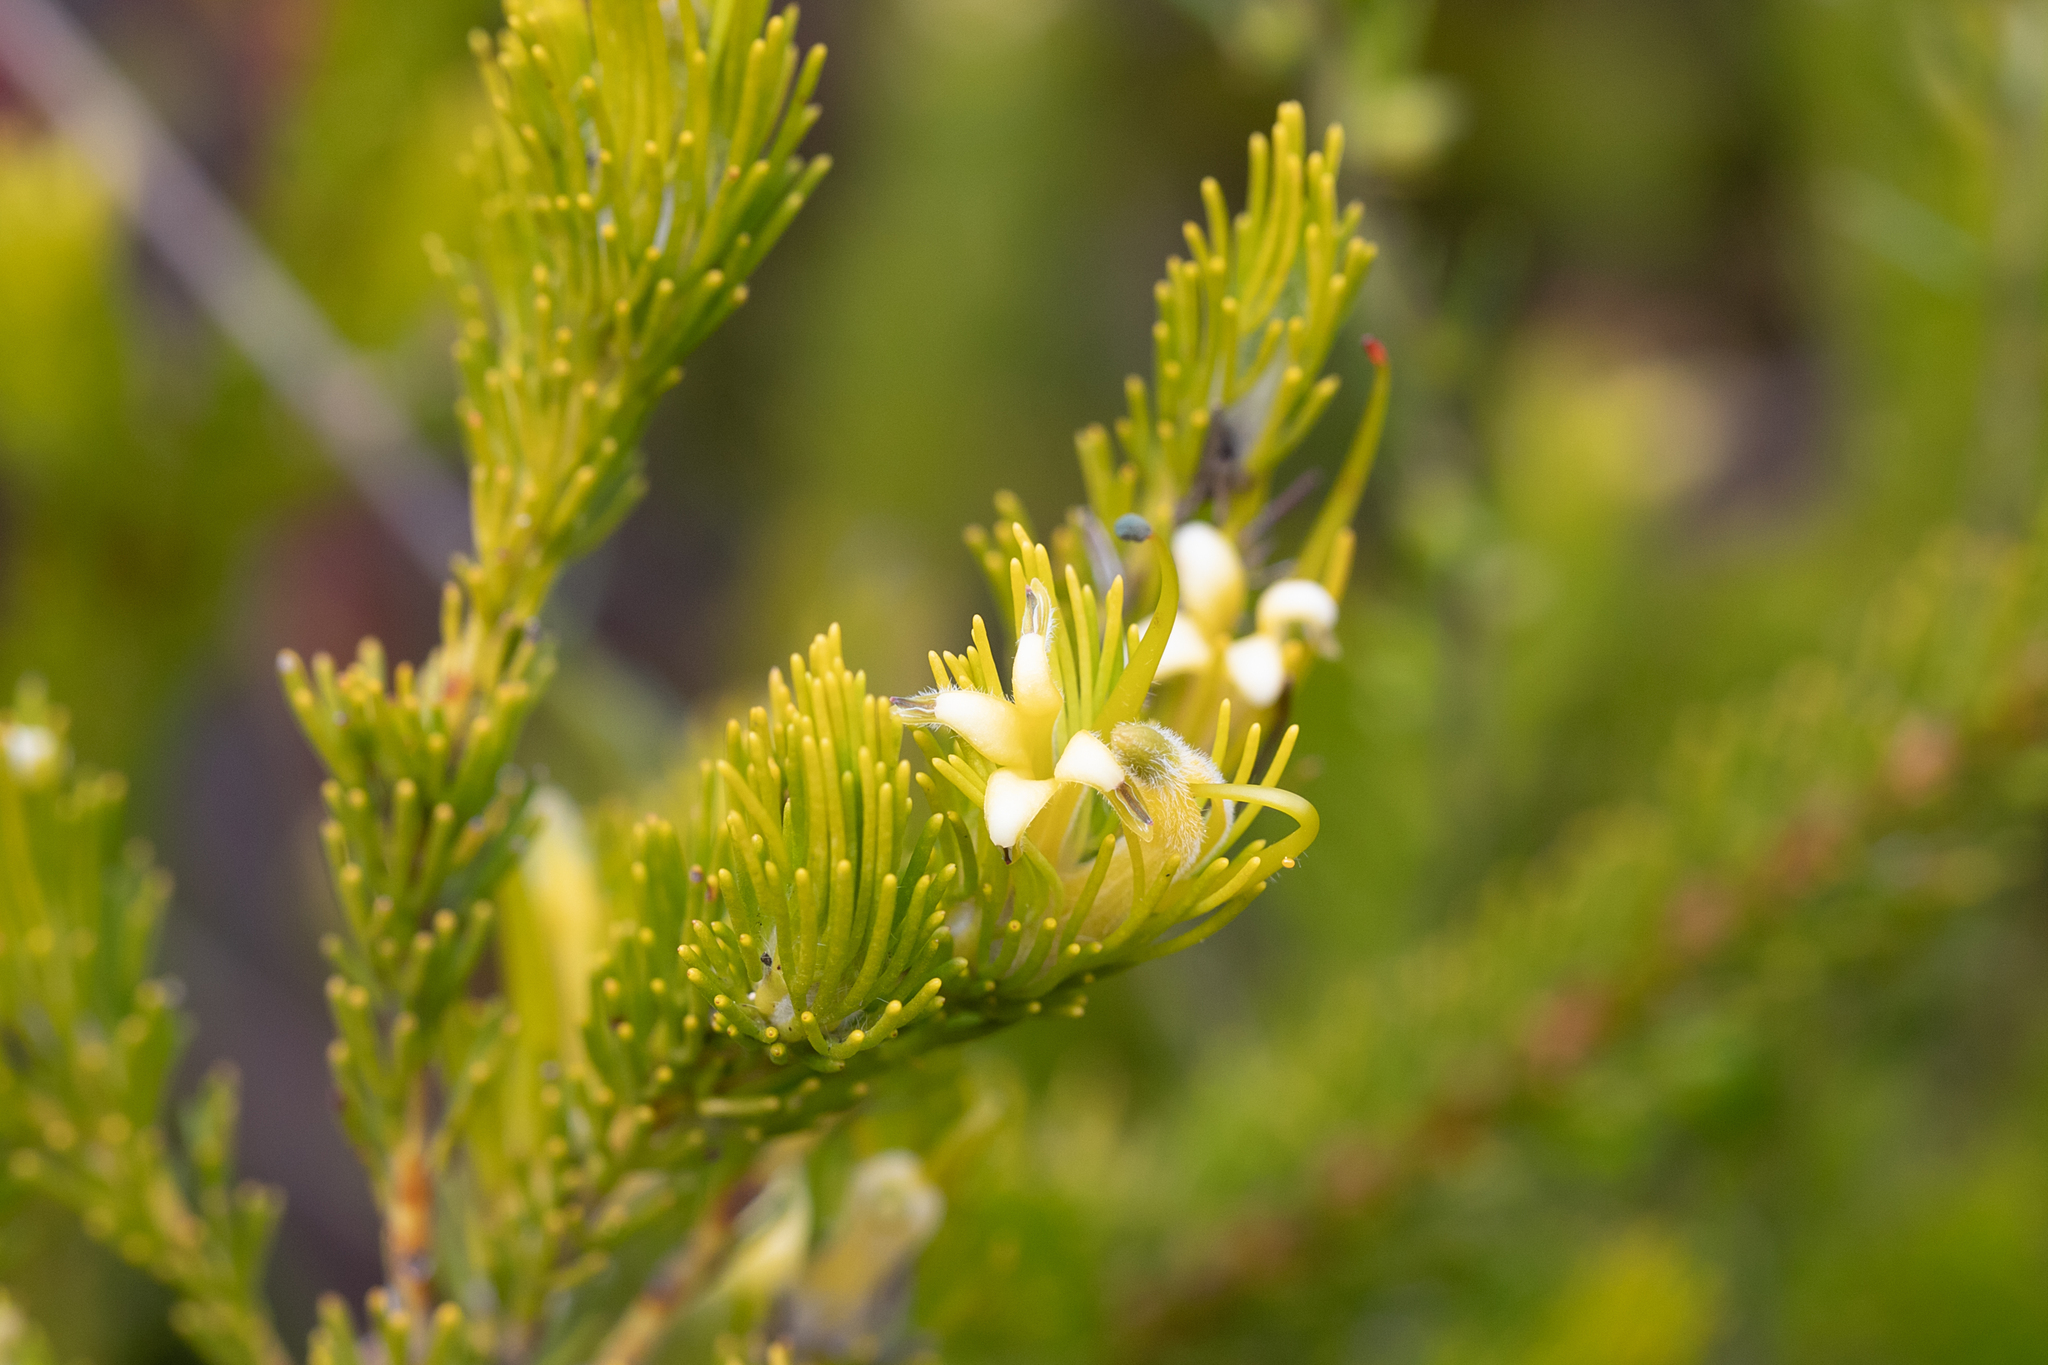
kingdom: Plantae
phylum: Tracheophyta
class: Magnoliopsida
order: Proteales
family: Proteaceae
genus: Adenanthos
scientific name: Adenanthos terminalis
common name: Yellow gland-flower
